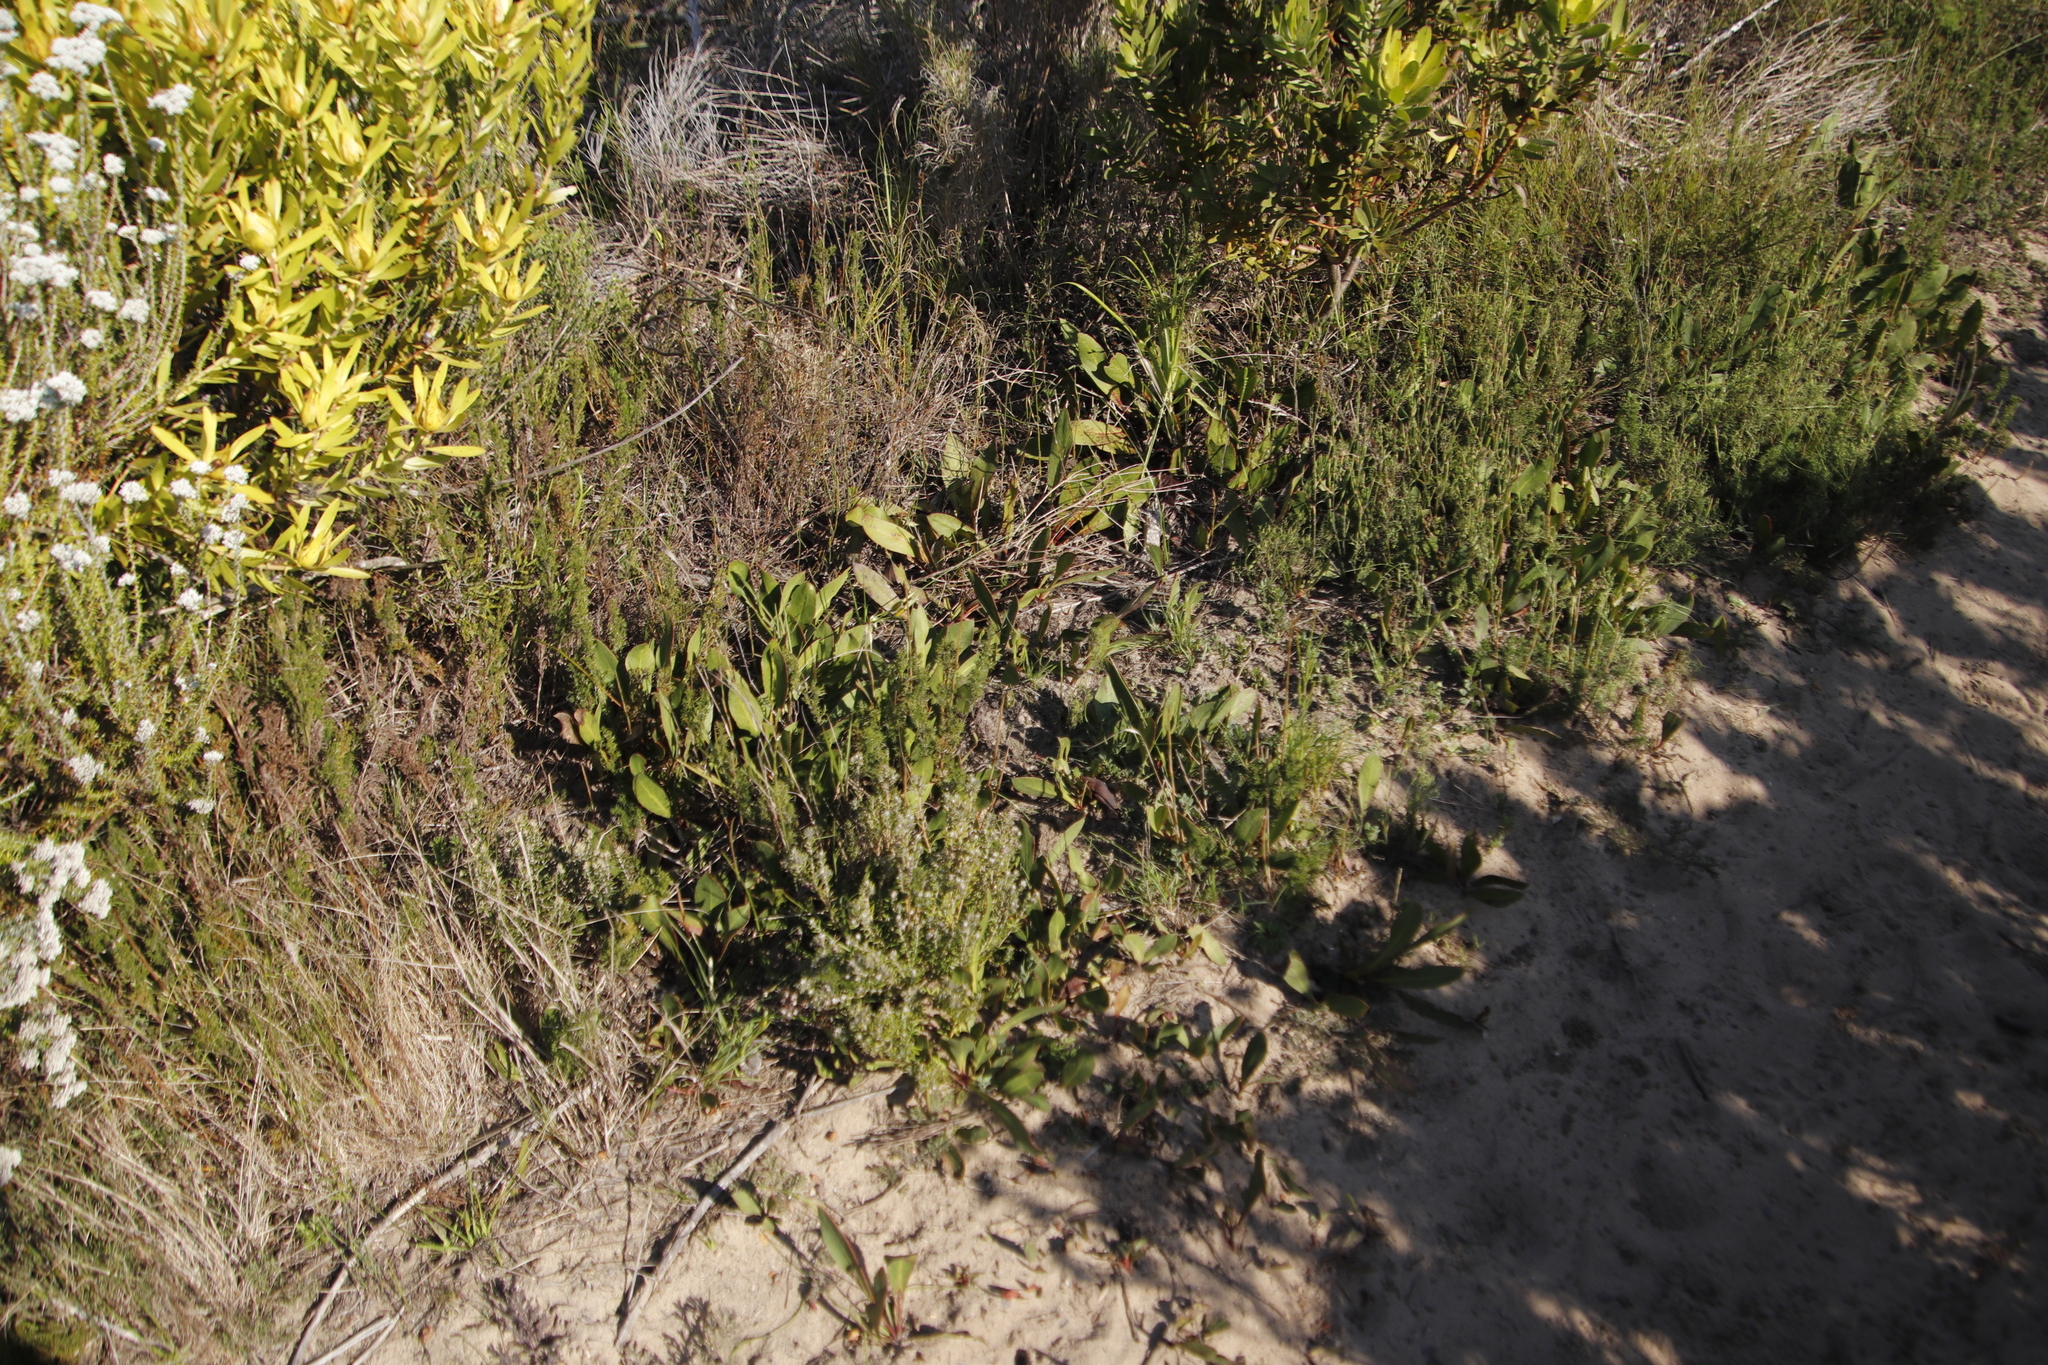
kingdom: Plantae
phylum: Tracheophyta
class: Magnoliopsida
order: Proteales
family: Proteaceae
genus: Protea
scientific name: Protea acaulos
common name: Common ground sugarbush
